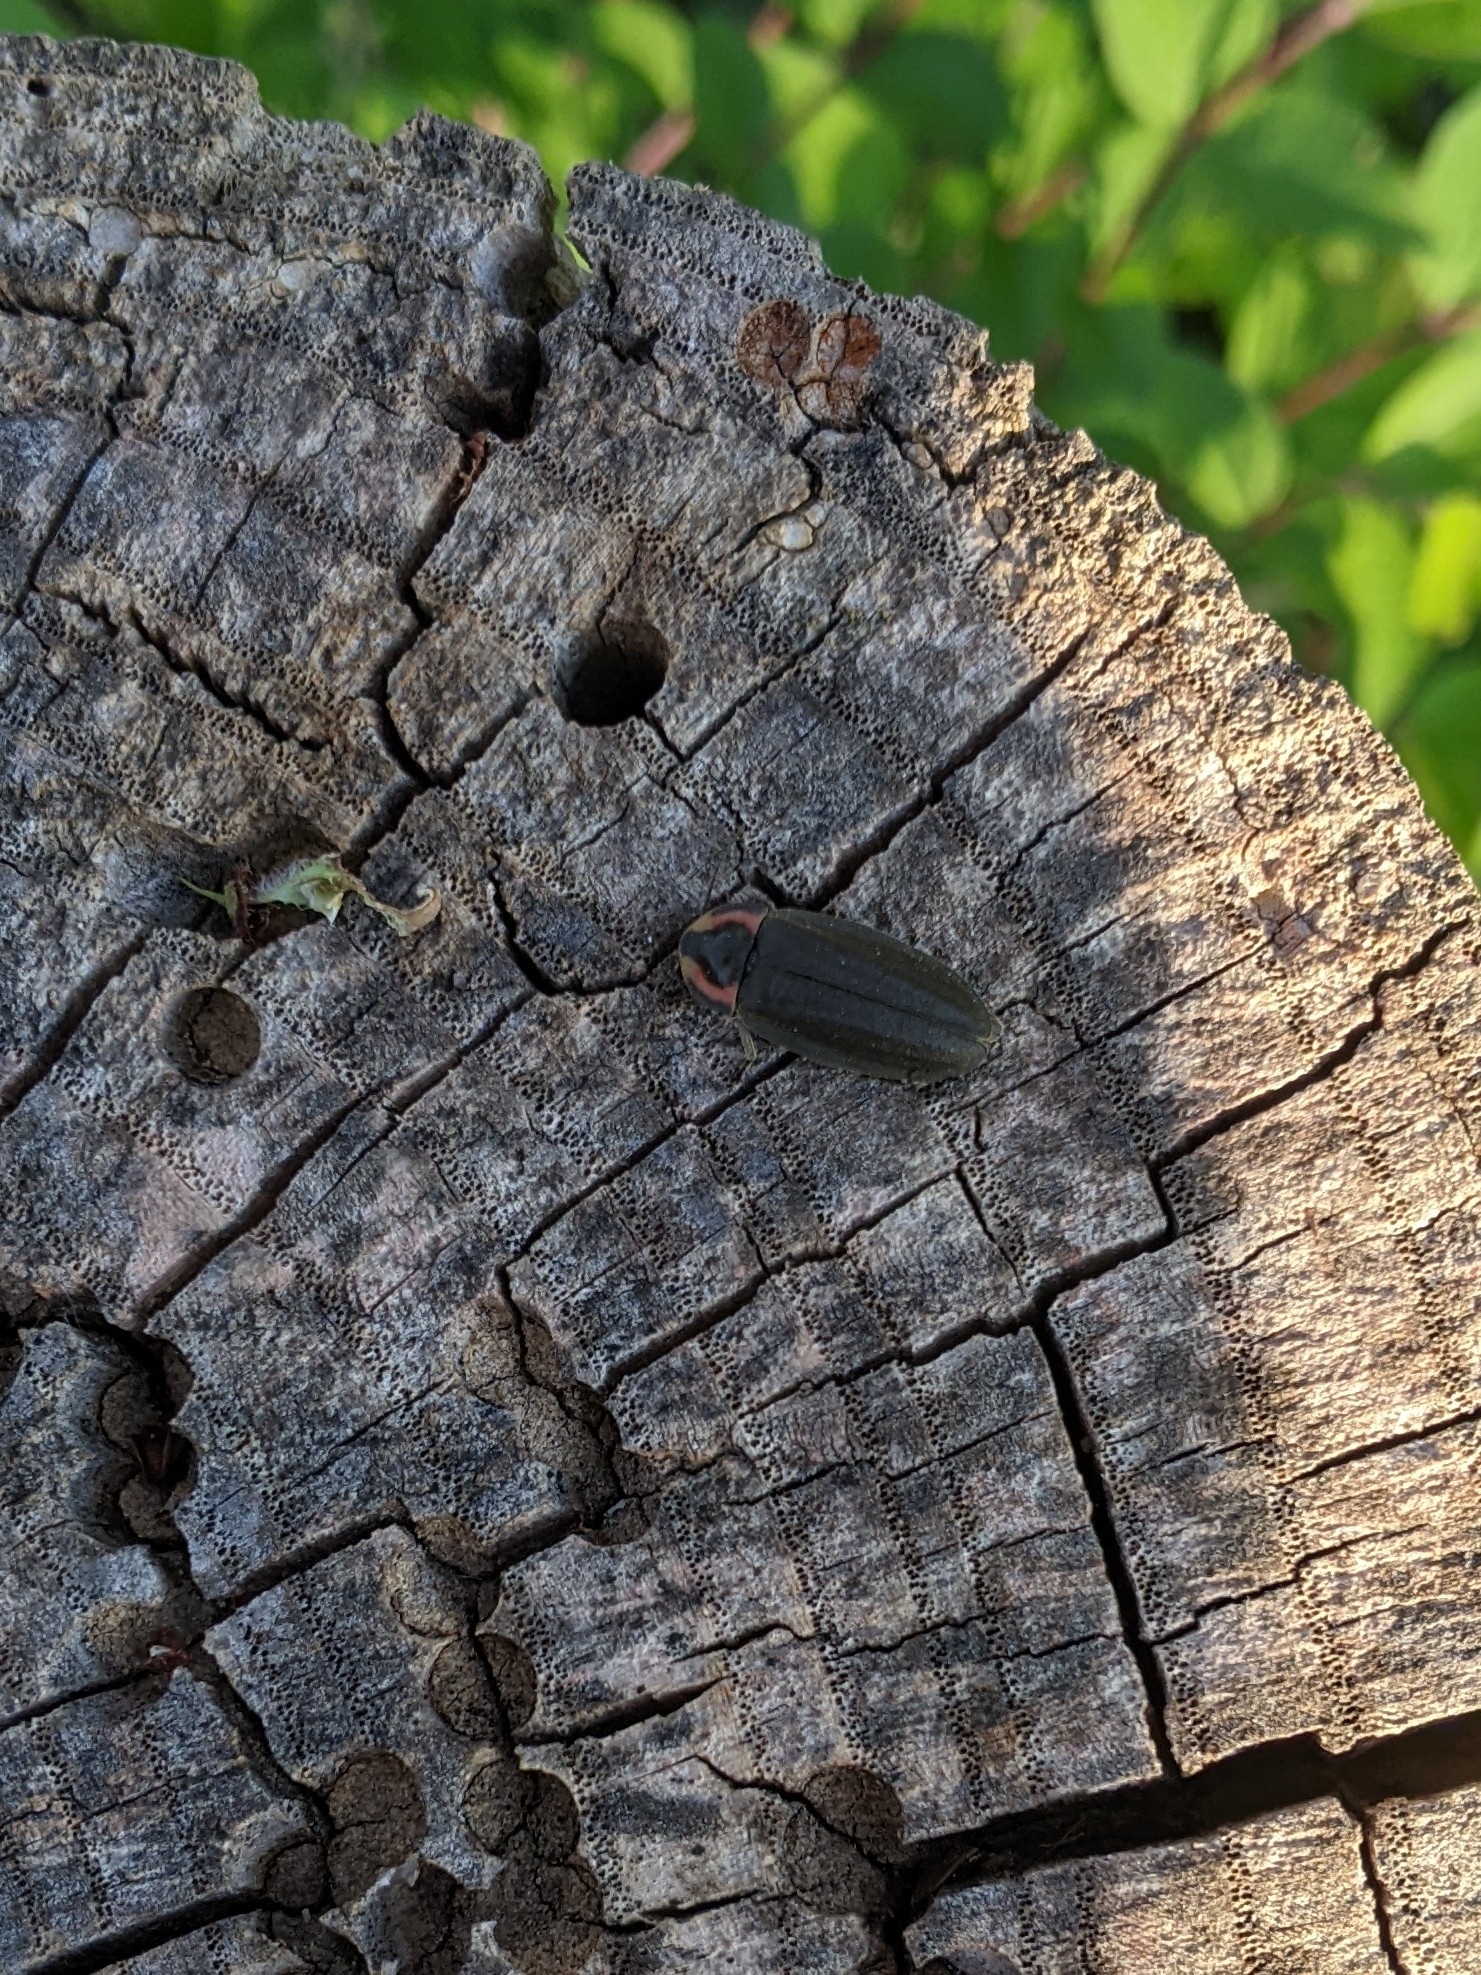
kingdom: Animalia
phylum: Arthropoda
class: Insecta
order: Coleoptera
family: Lampyridae
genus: Photinus
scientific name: Photinus corrusca
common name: Winter firefly
